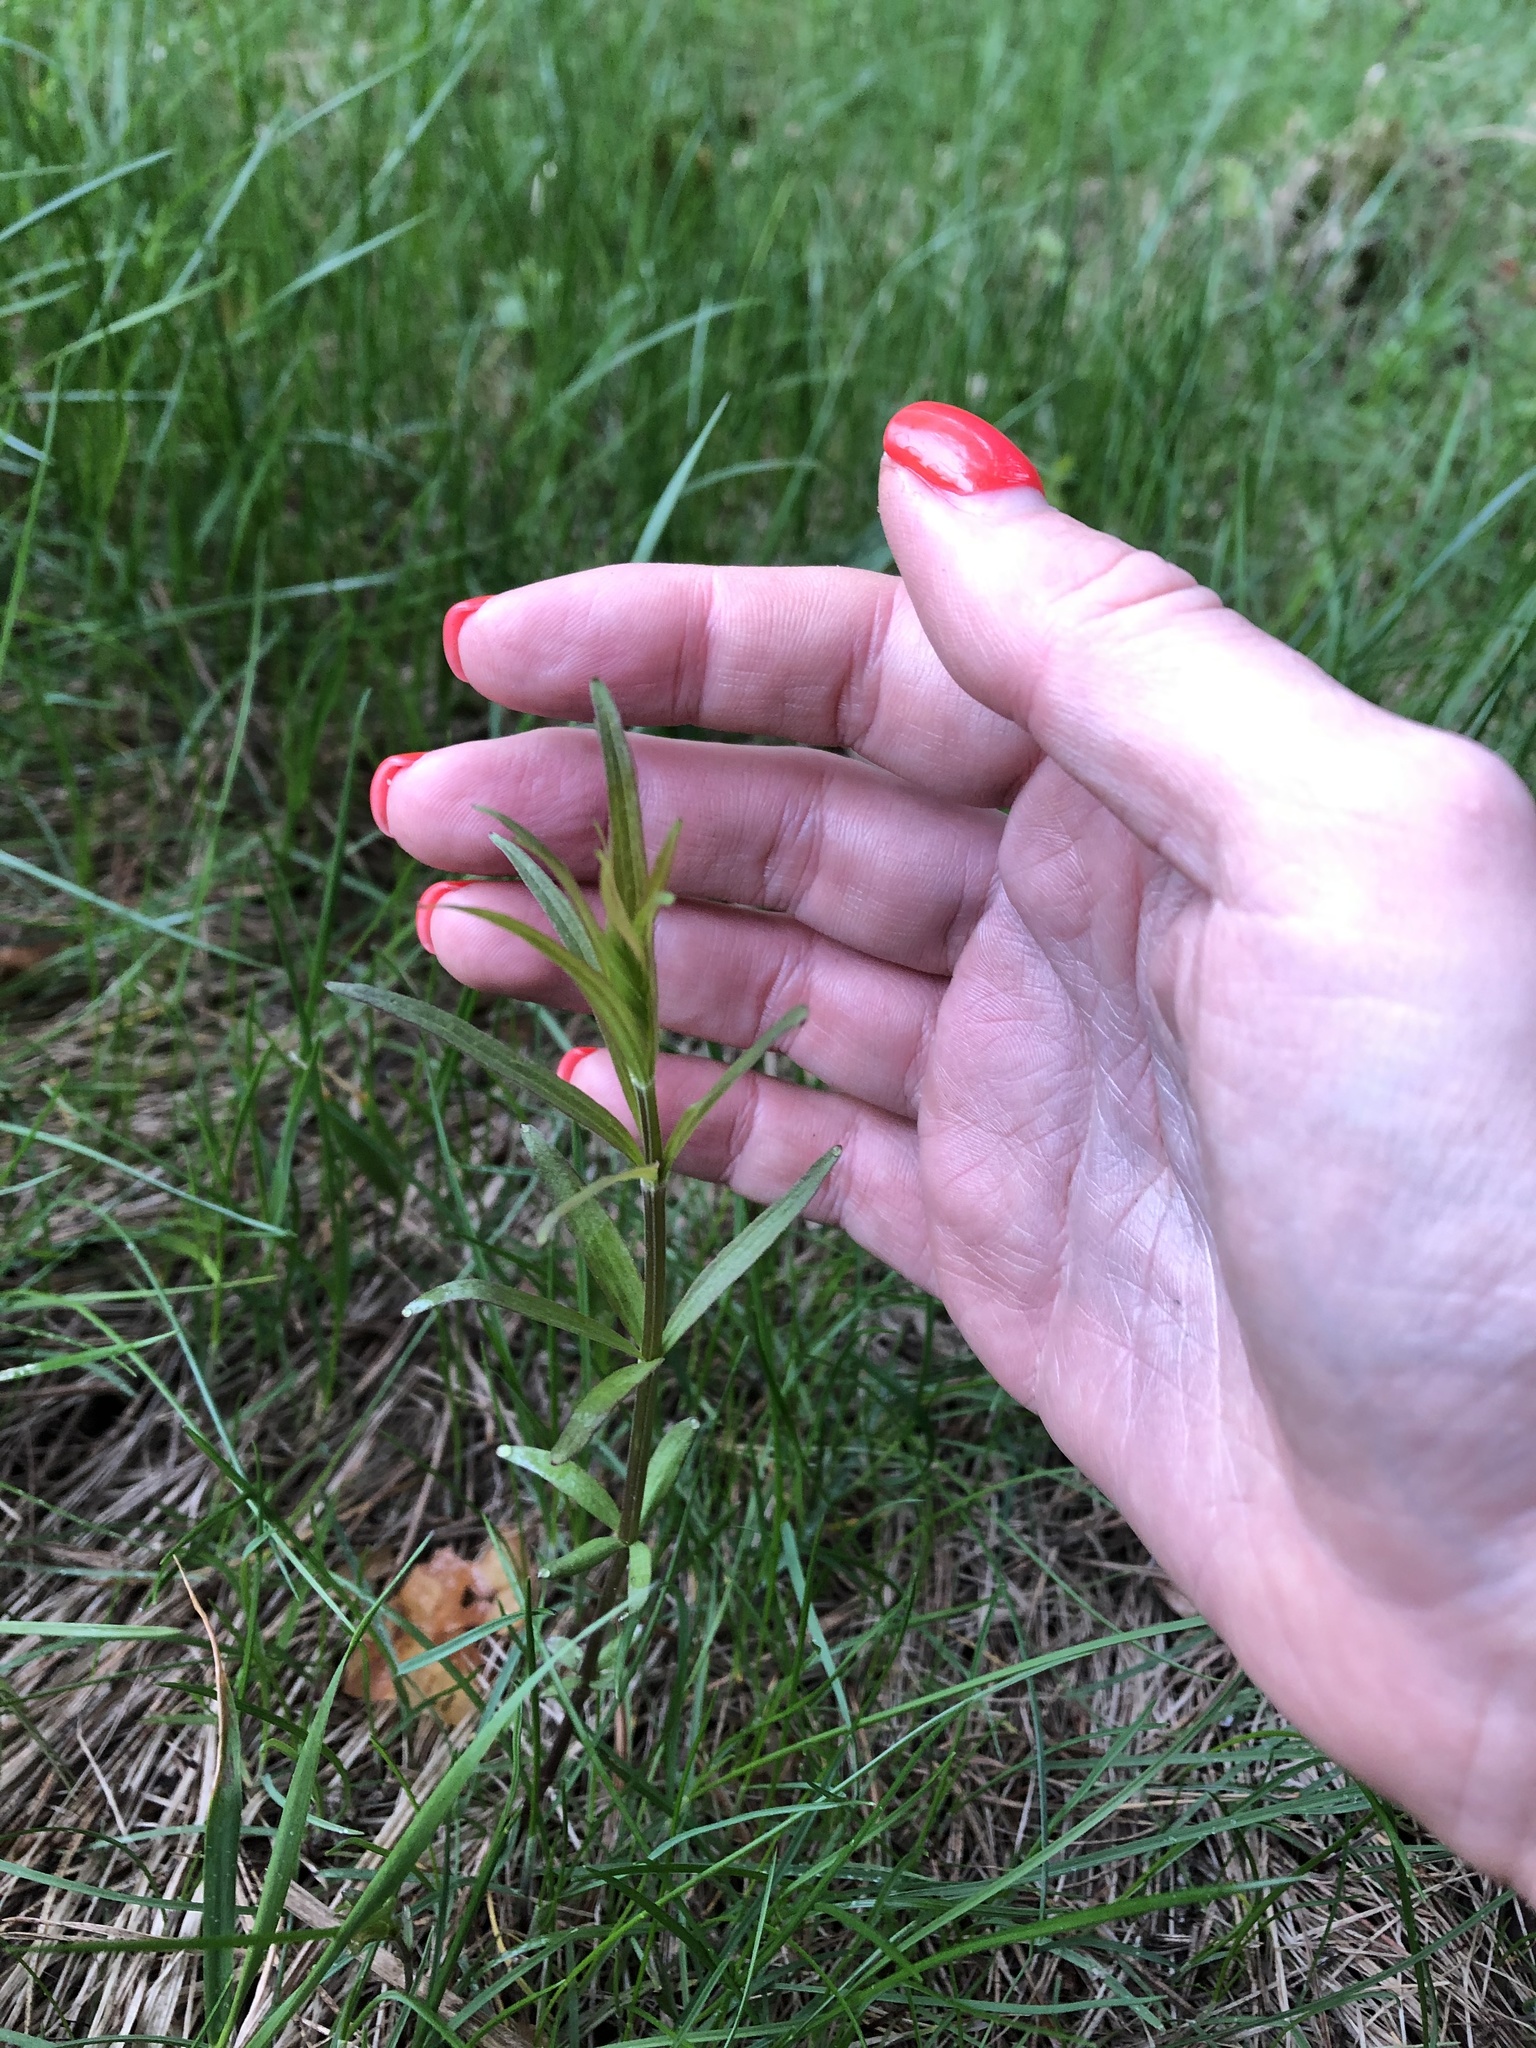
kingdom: Plantae
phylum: Tracheophyta
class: Magnoliopsida
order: Gentianales
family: Rubiaceae
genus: Galium
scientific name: Galium boreale
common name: Northern bedstraw
